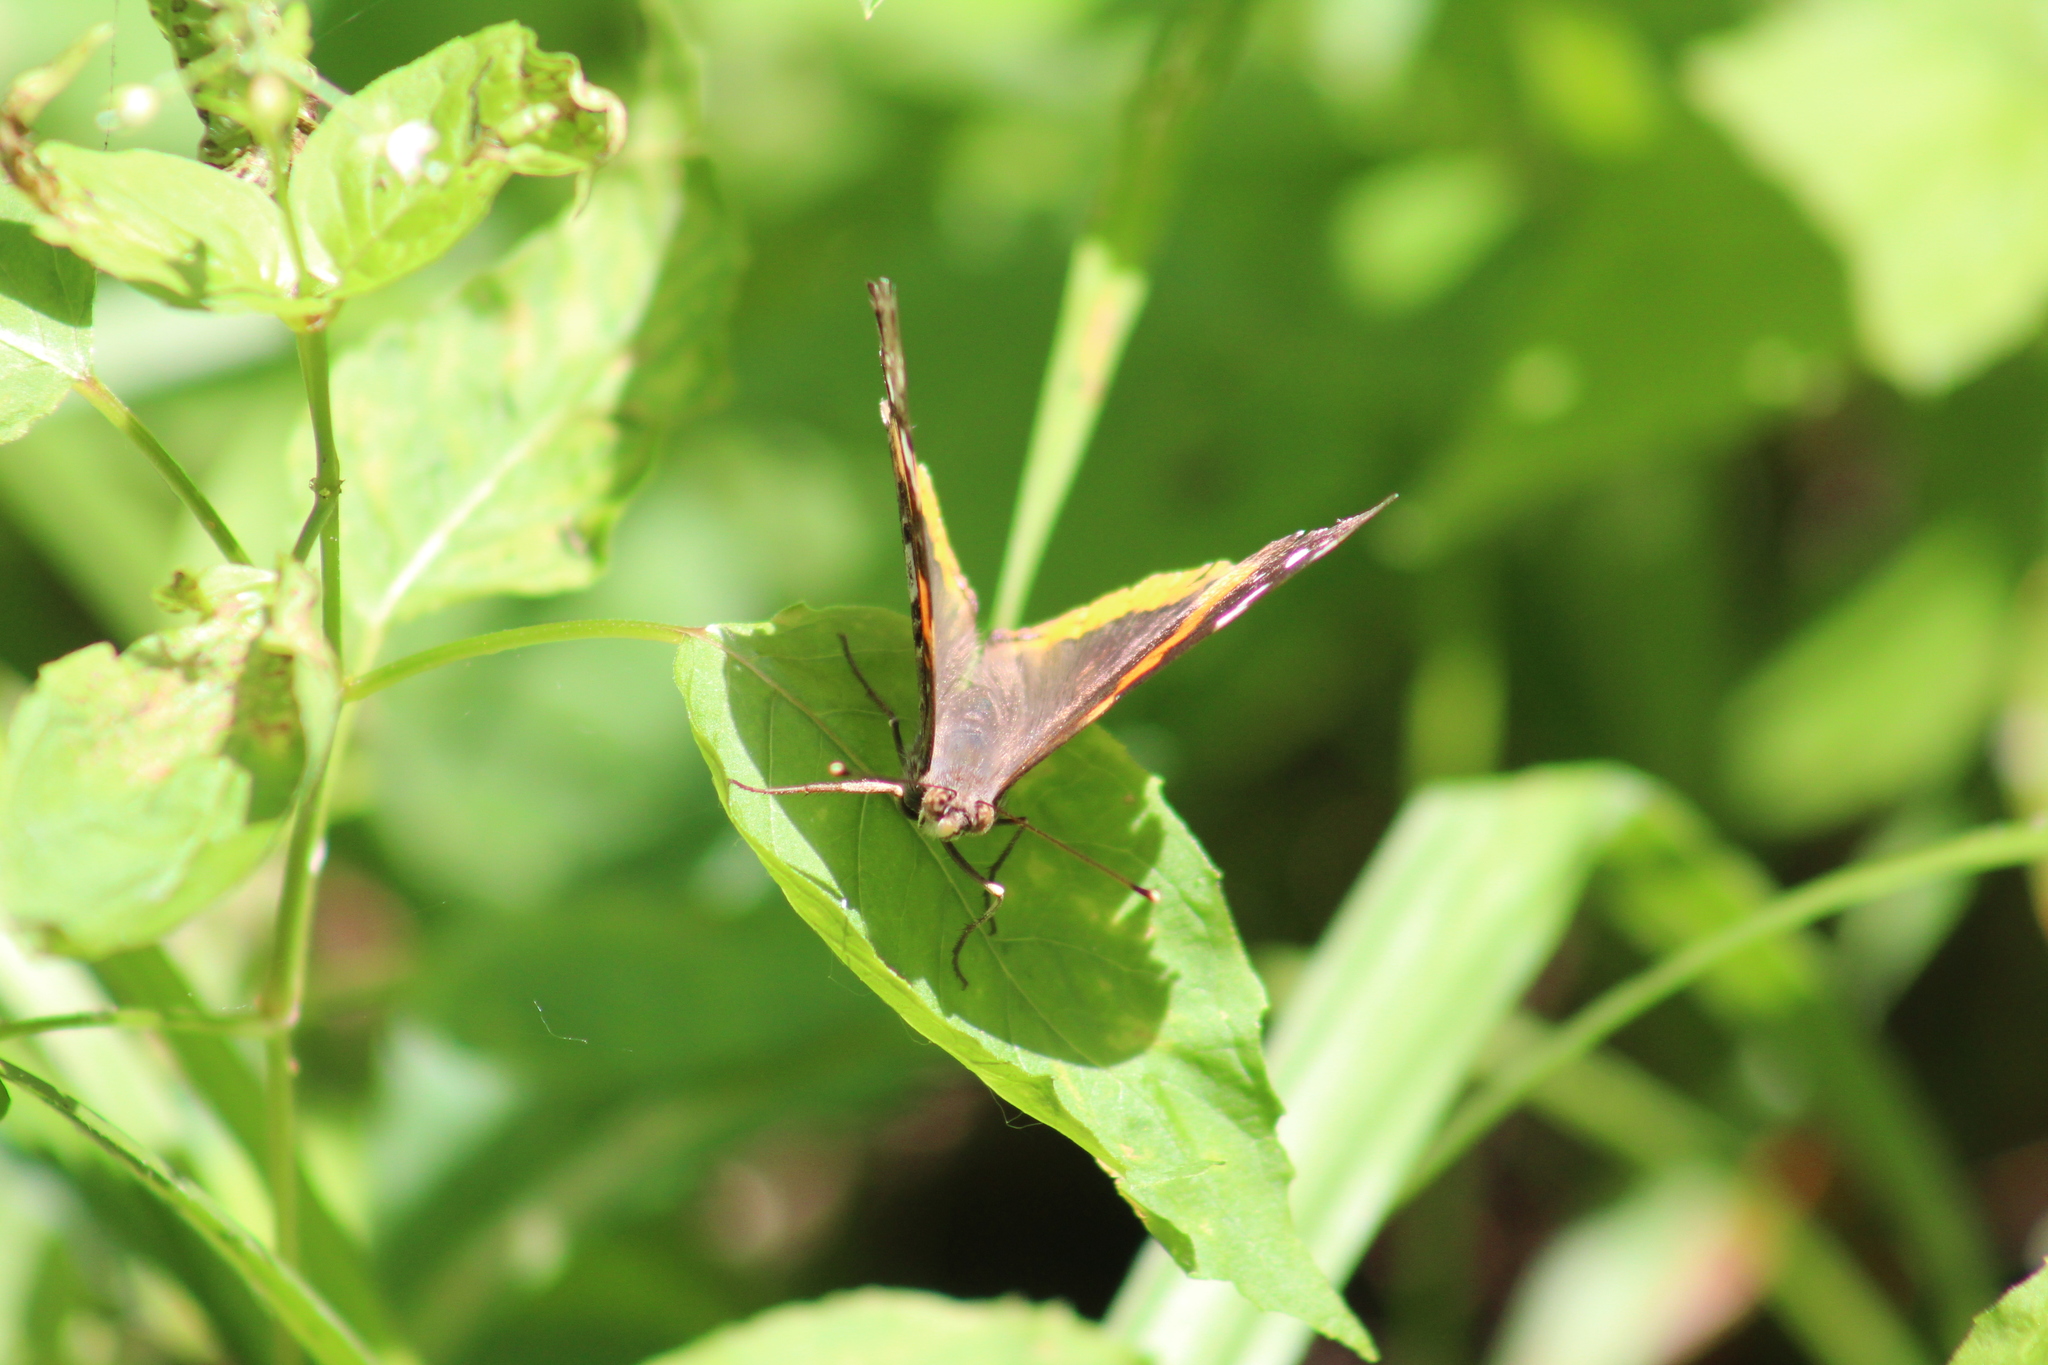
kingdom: Animalia
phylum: Arthropoda
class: Insecta
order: Lepidoptera
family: Nymphalidae
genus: Vanessa
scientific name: Vanessa atalanta
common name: Red admiral
